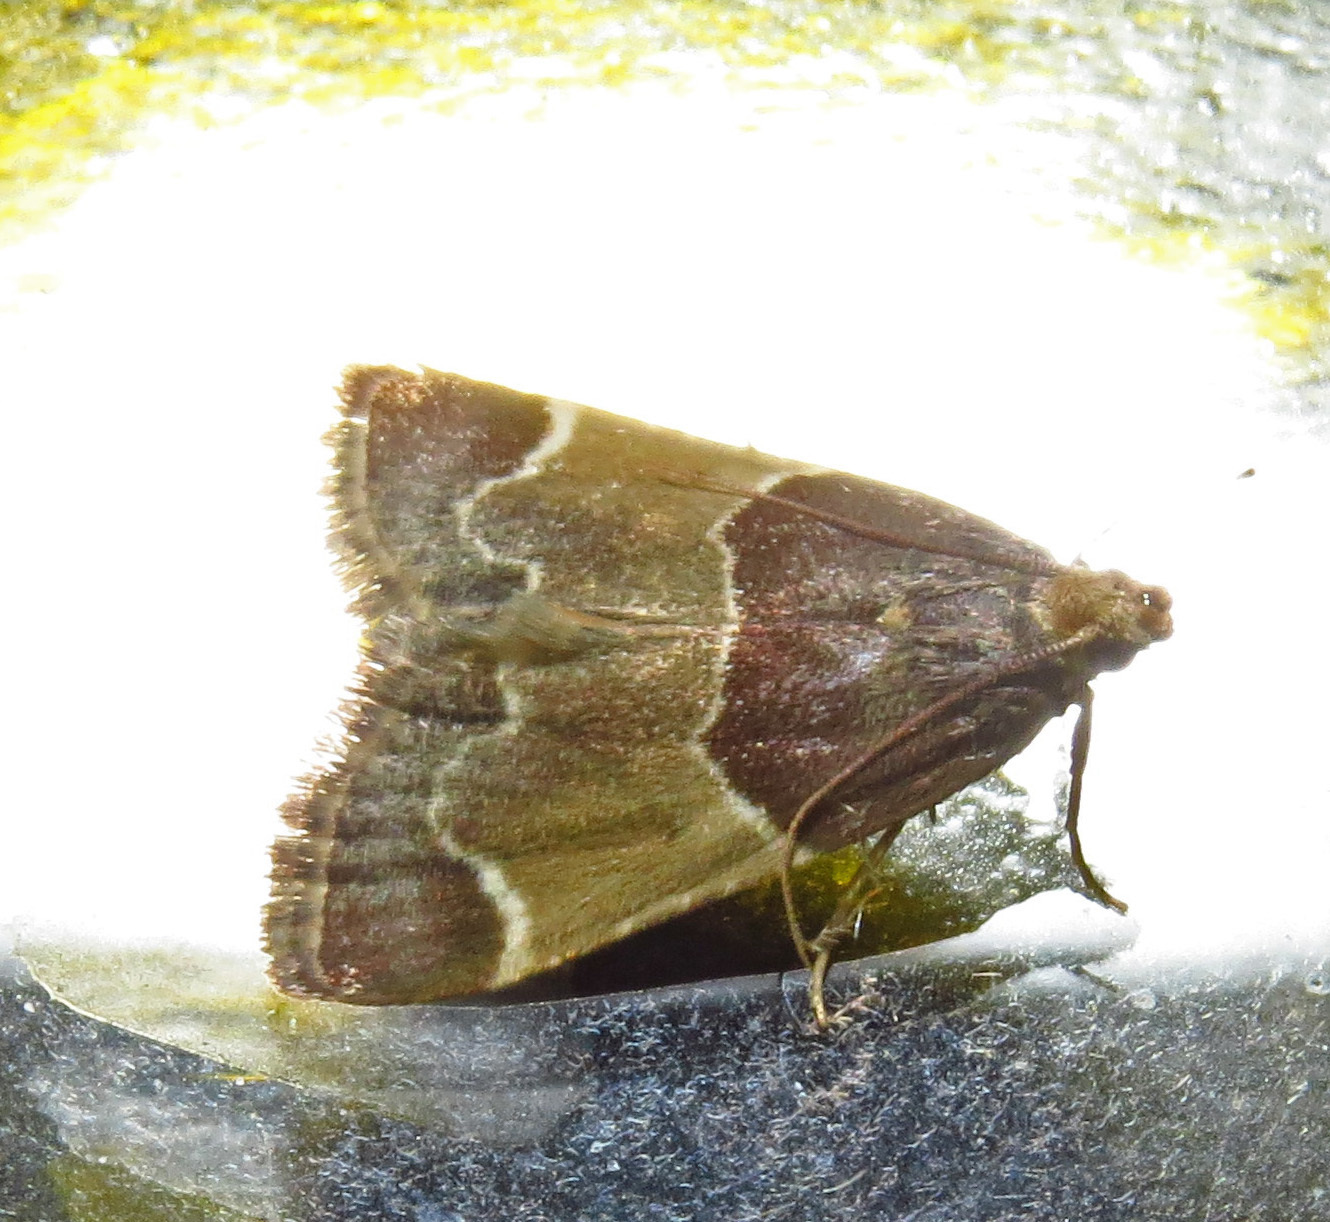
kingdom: Animalia
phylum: Arthropoda
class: Insecta
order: Lepidoptera
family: Pyralidae
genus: Pyralis
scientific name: Pyralis farinalis
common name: Meal moth
